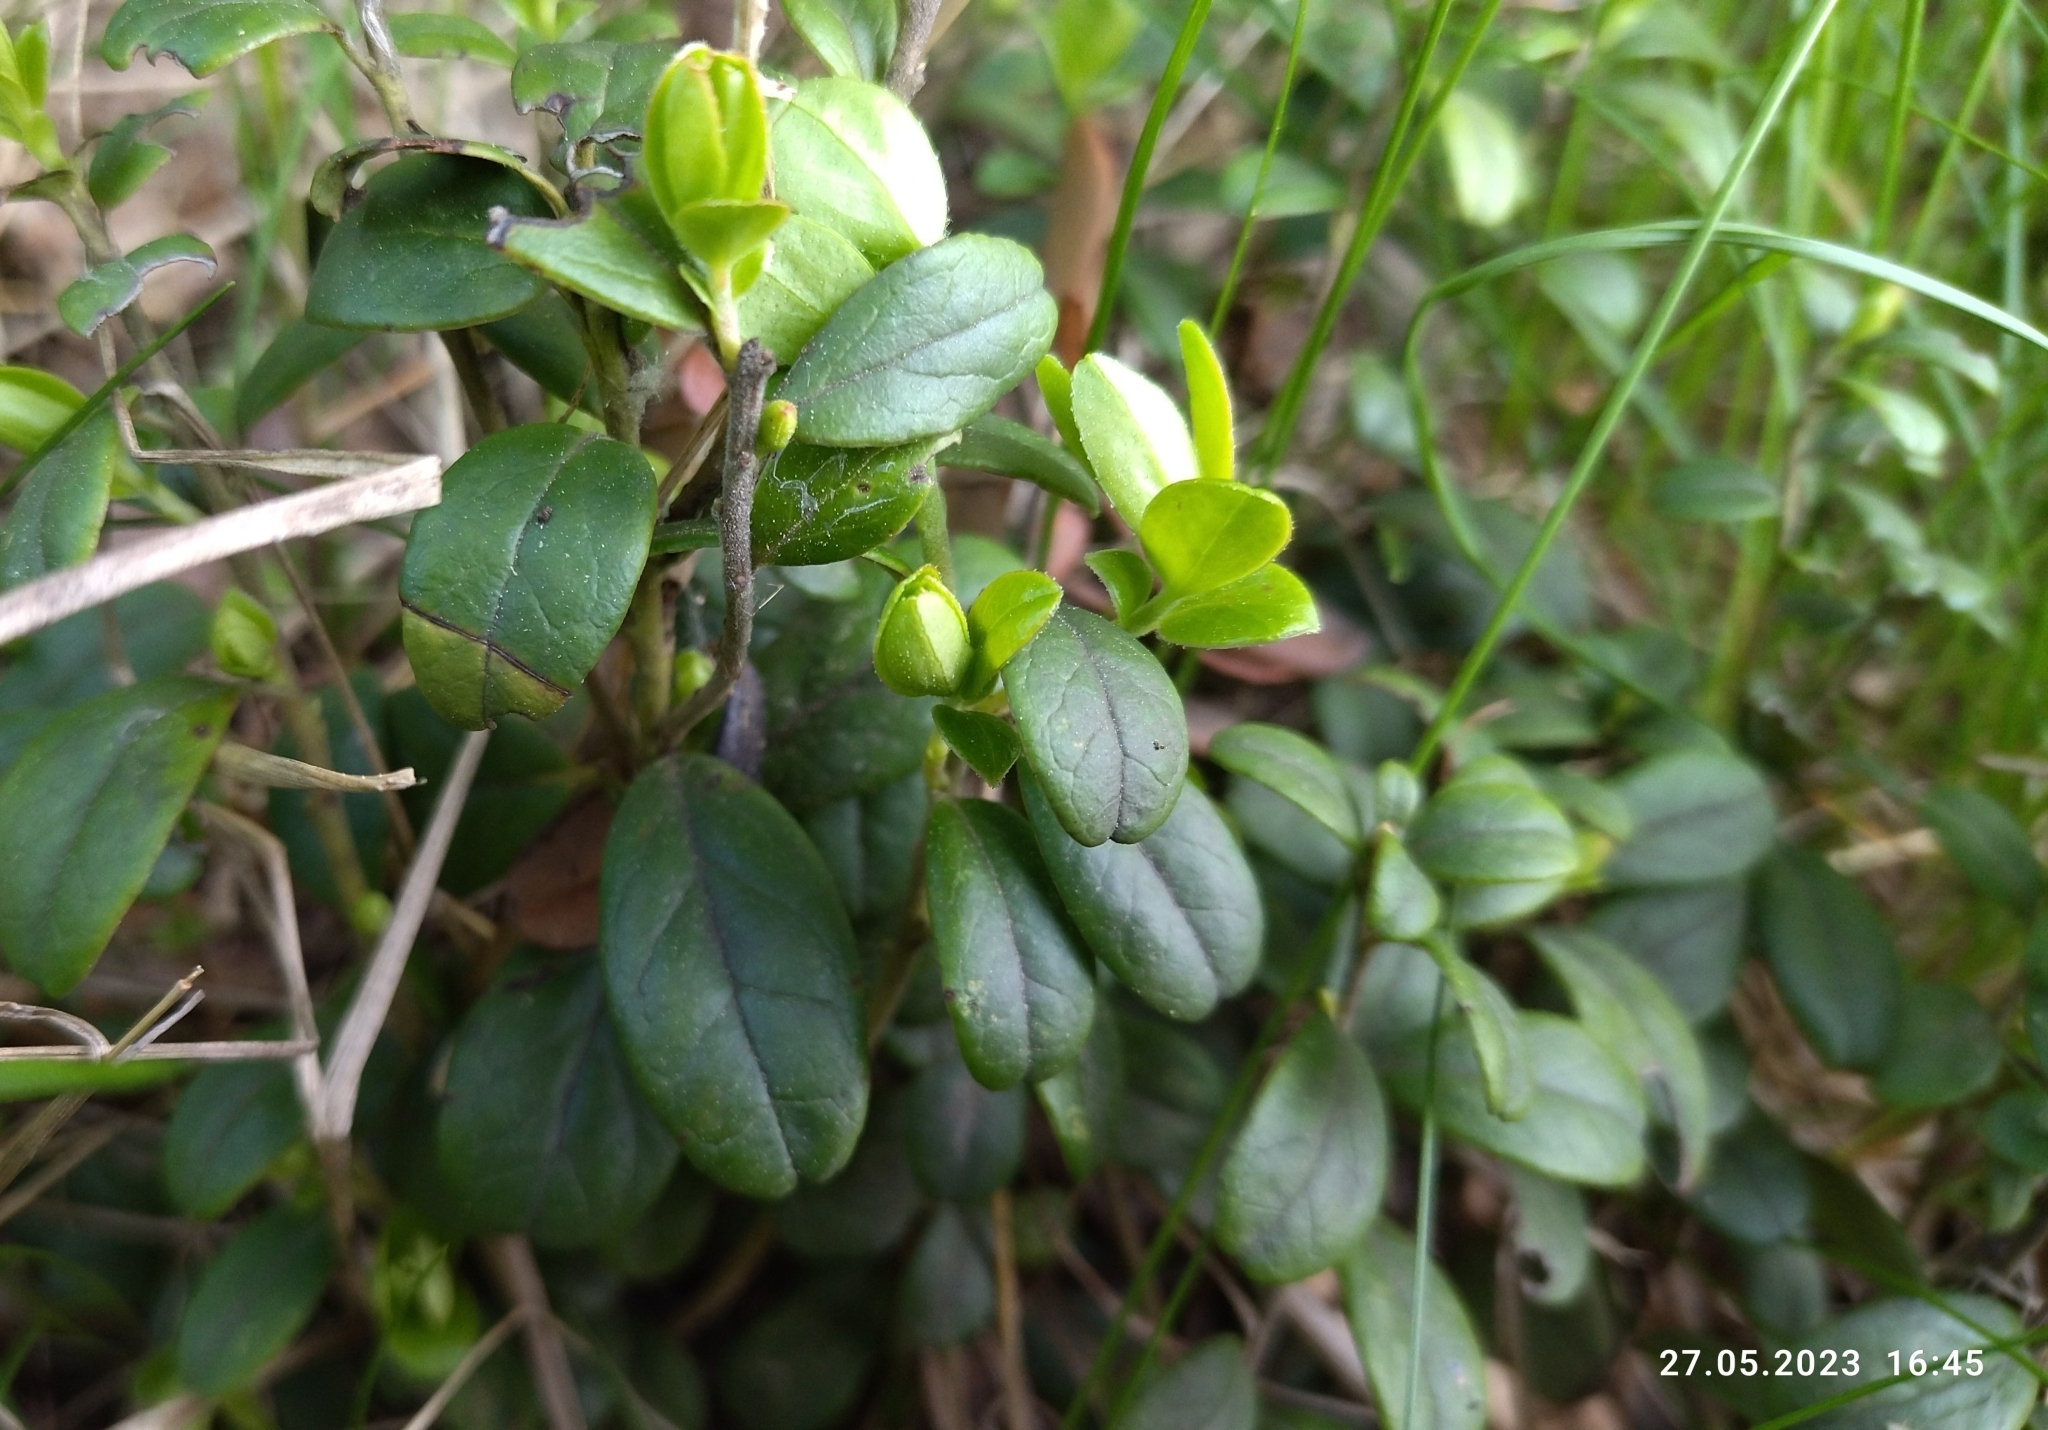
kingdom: Plantae
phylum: Tracheophyta
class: Magnoliopsida
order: Ericales
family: Ericaceae
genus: Vaccinium
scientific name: Vaccinium vitis-idaea
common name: Cowberry
